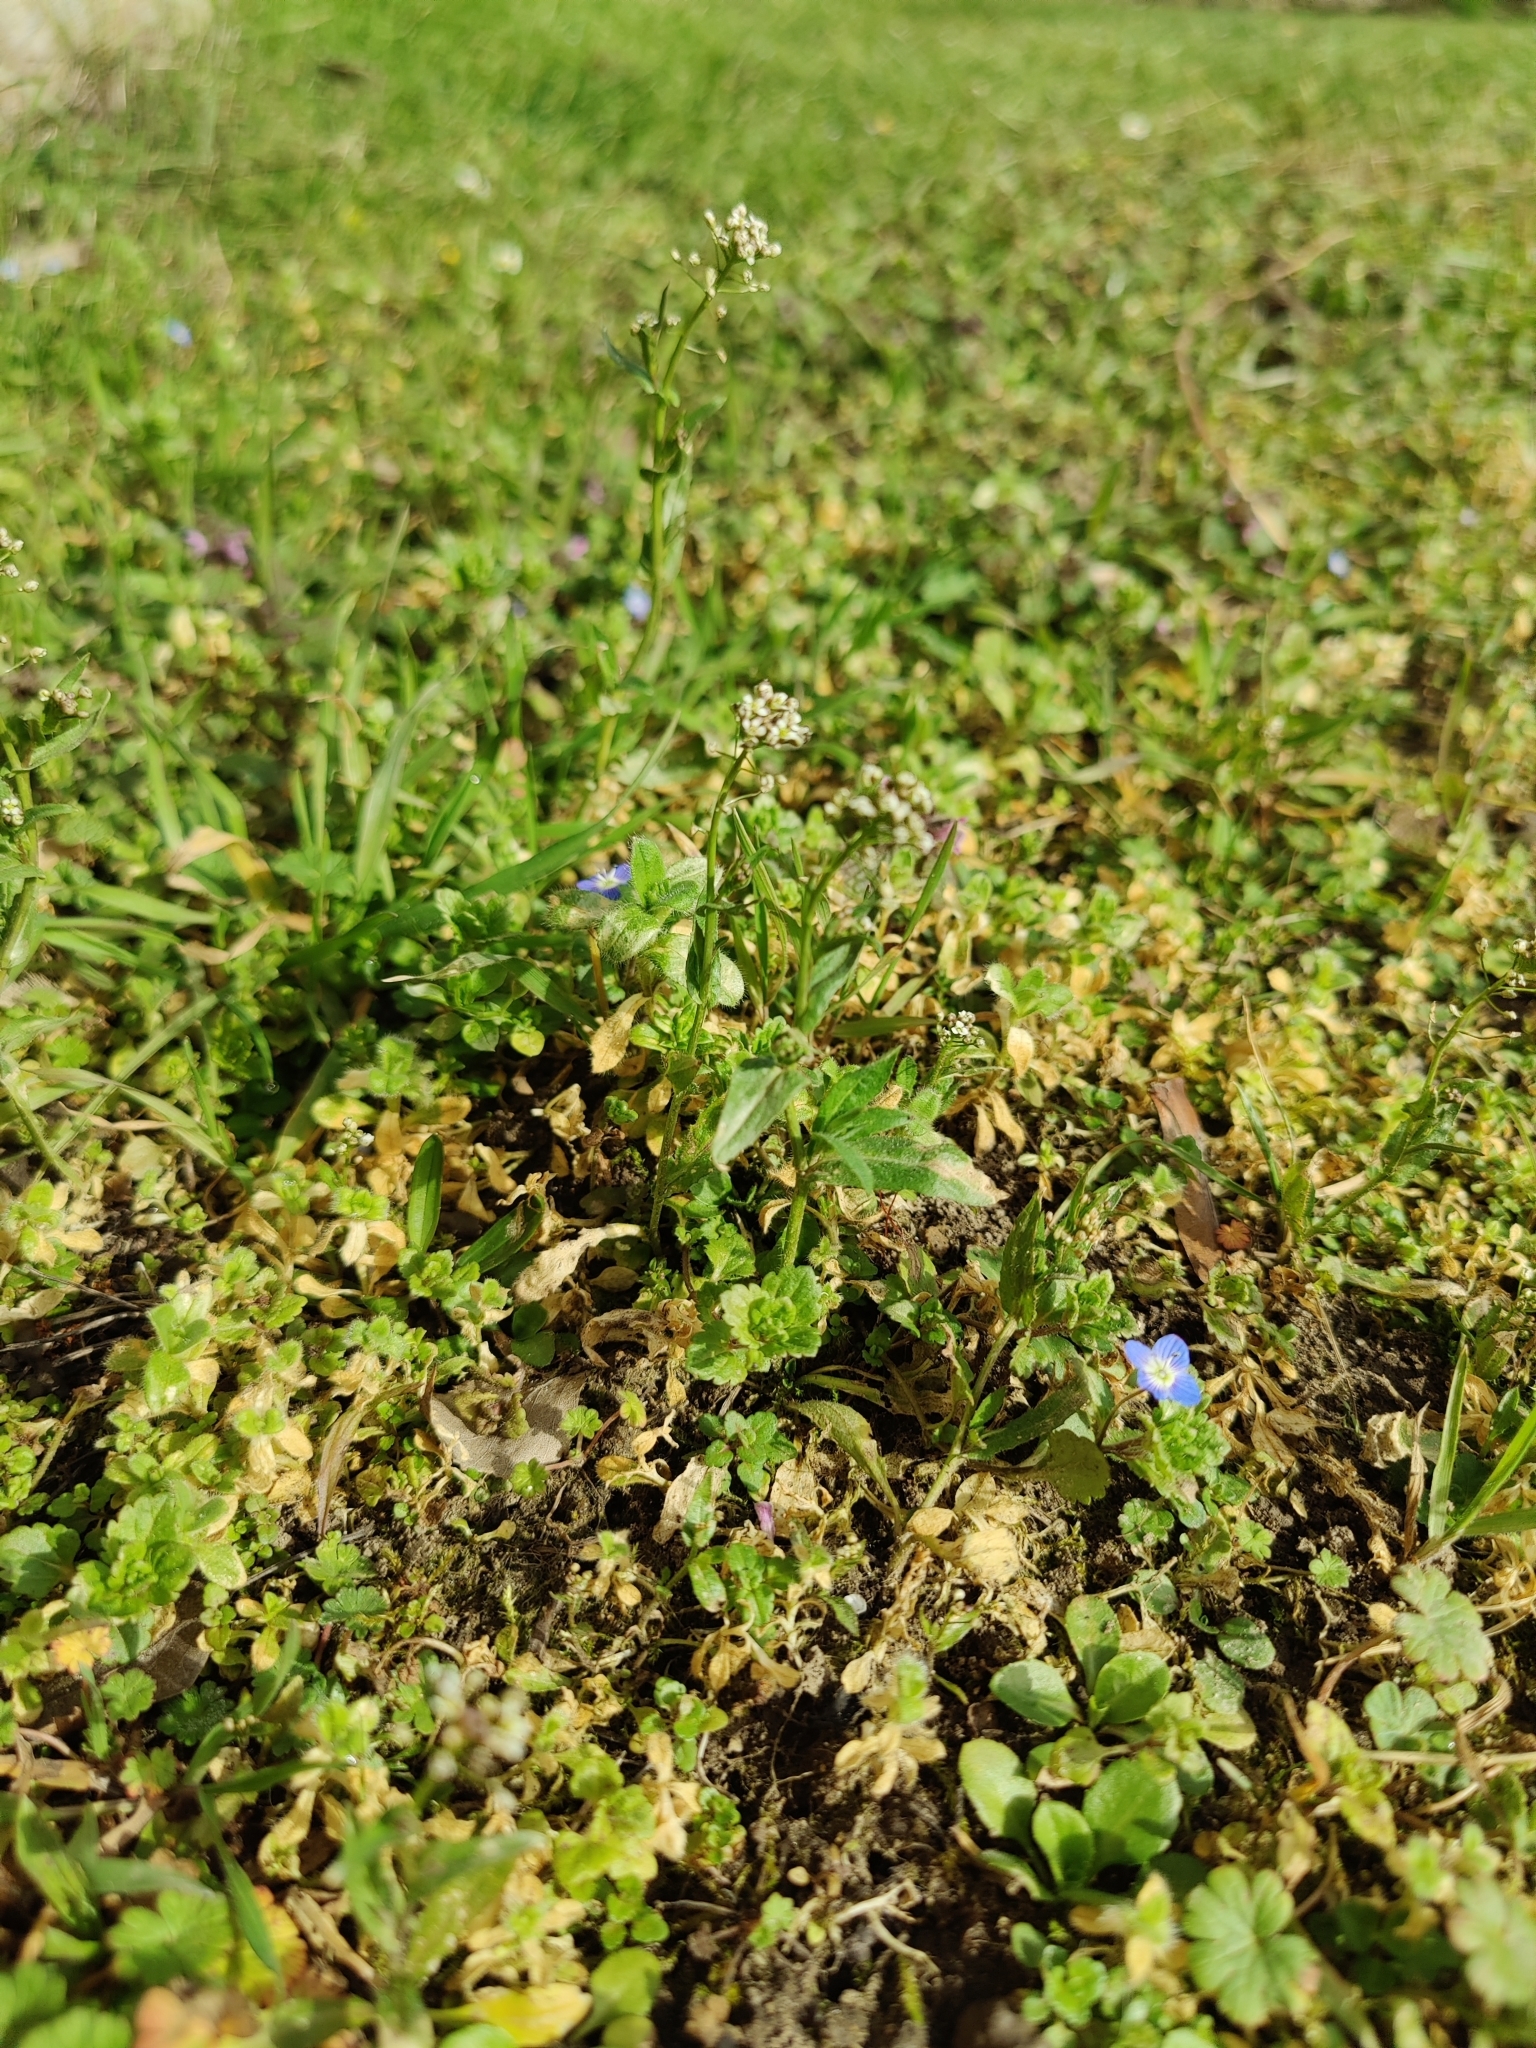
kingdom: Plantae
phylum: Tracheophyta
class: Magnoliopsida
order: Brassicales
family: Brassicaceae
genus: Capsella
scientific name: Capsella bursa-pastoris
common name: Shepherd's purse
